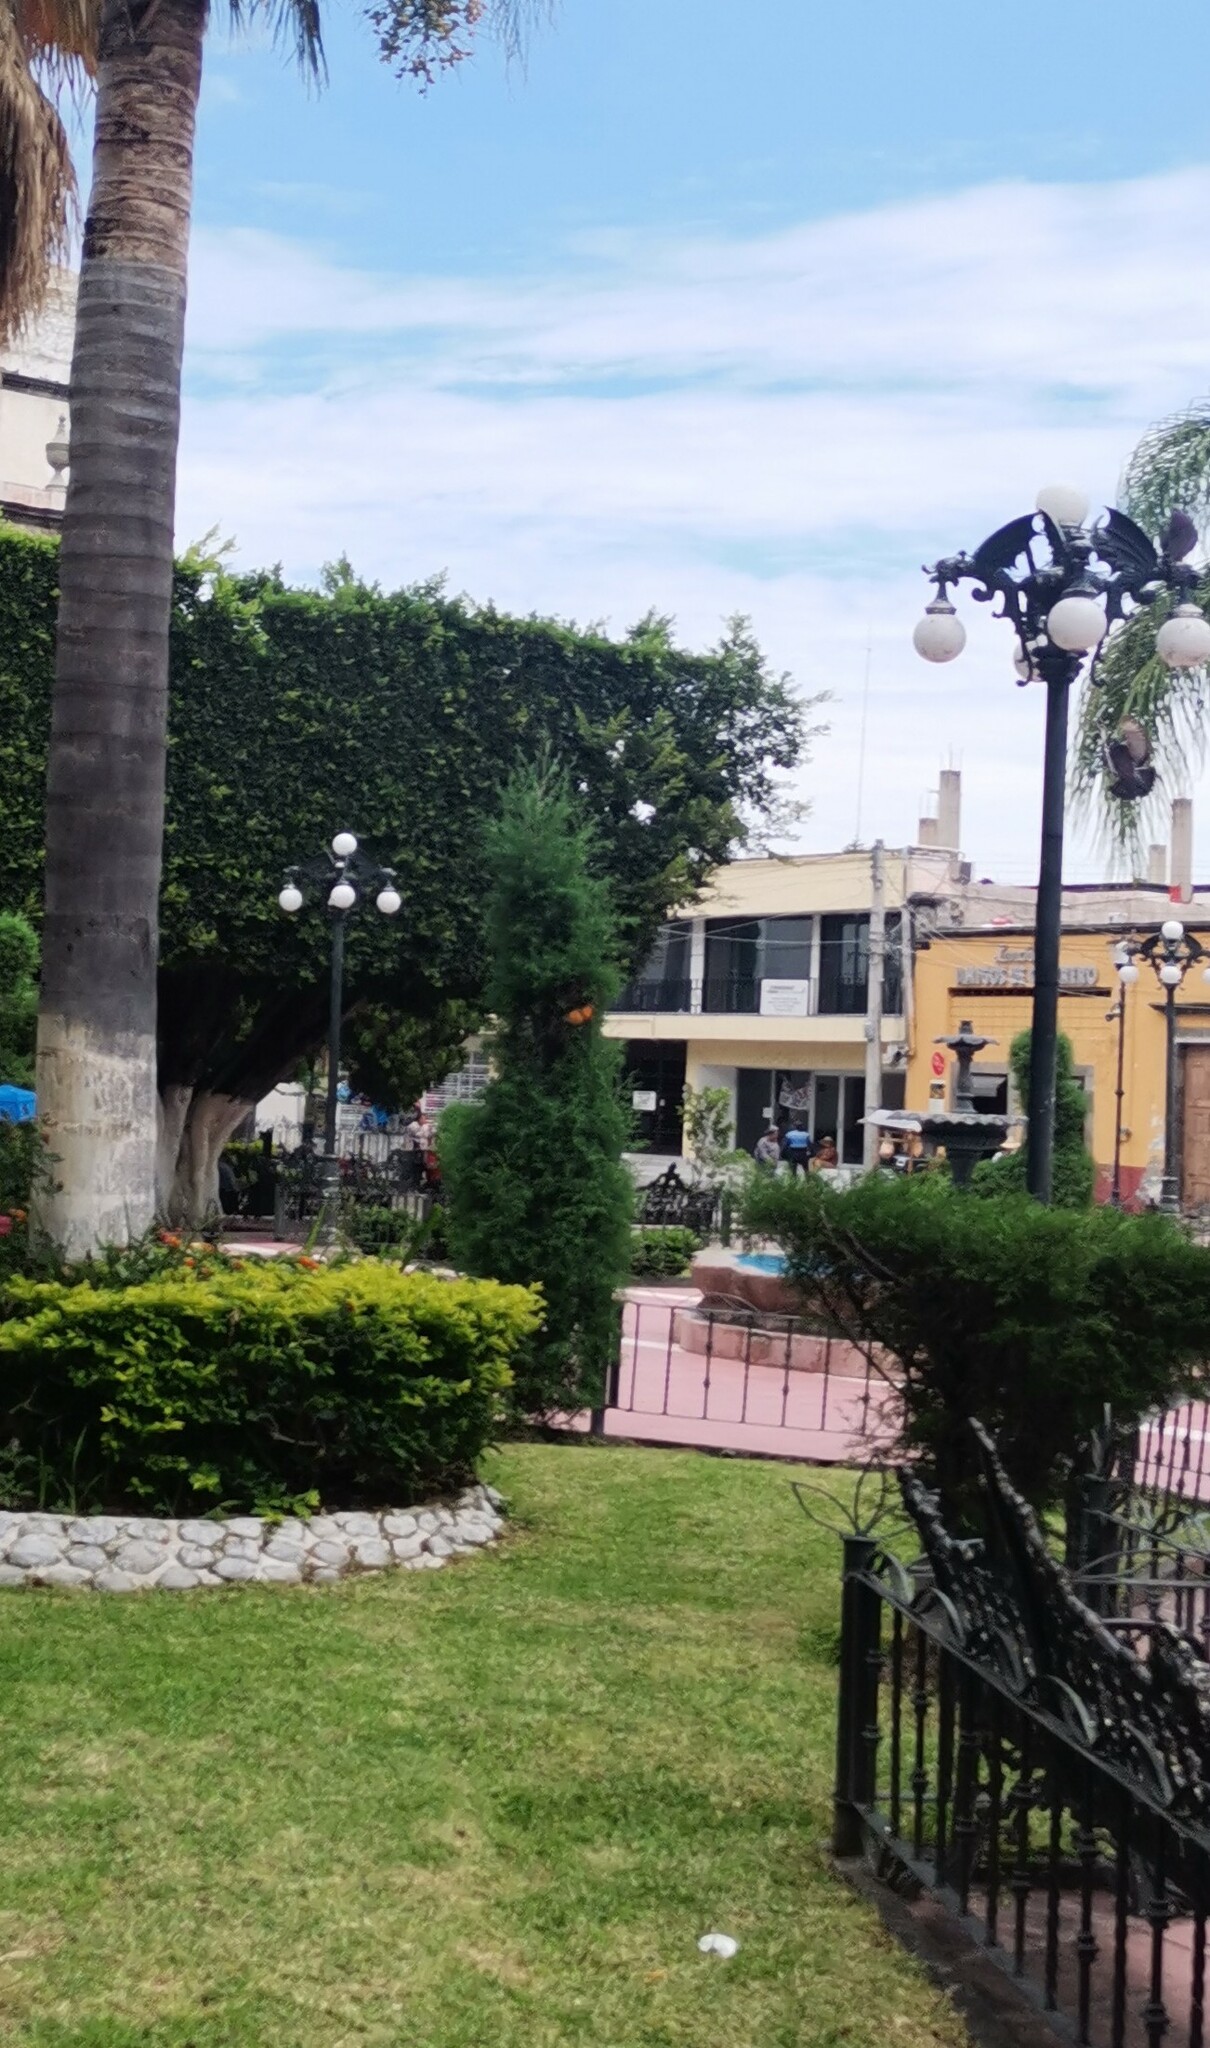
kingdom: Animalia
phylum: Arthropoda
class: Insecta
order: Lepidoptera
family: Nymphalidae
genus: Danaus
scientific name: Danaus plexippus
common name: Monarch
